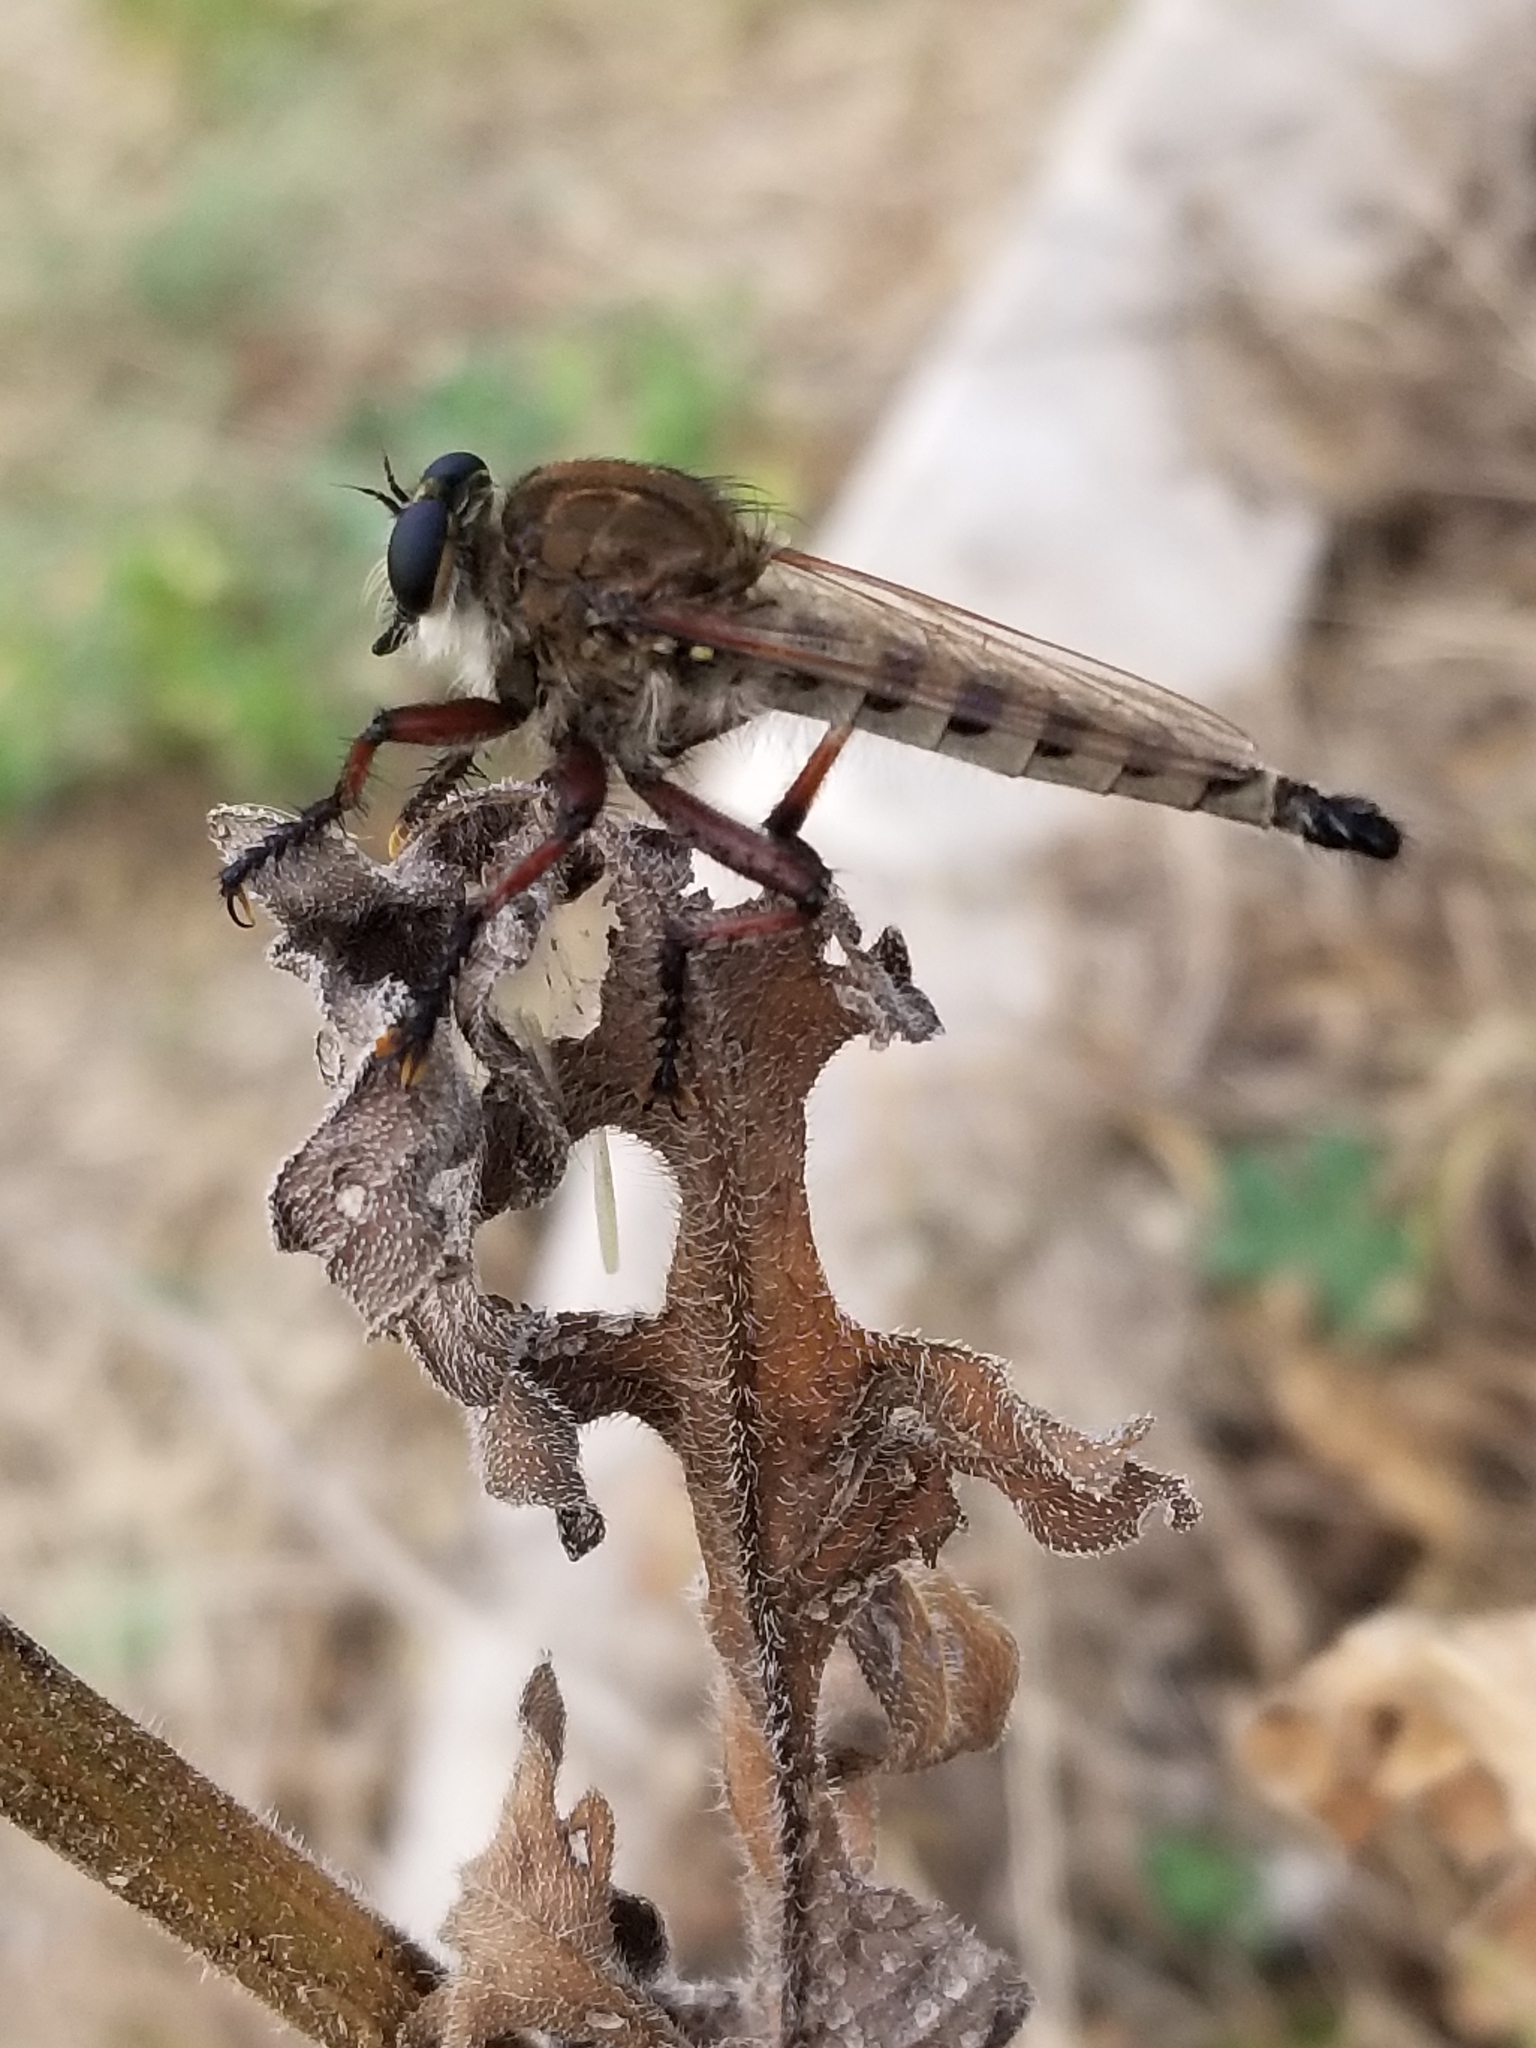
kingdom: Animalia
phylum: Arthropoda
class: Insecta
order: Diptera
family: Asilidae
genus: Promachus
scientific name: Promachus hinei
